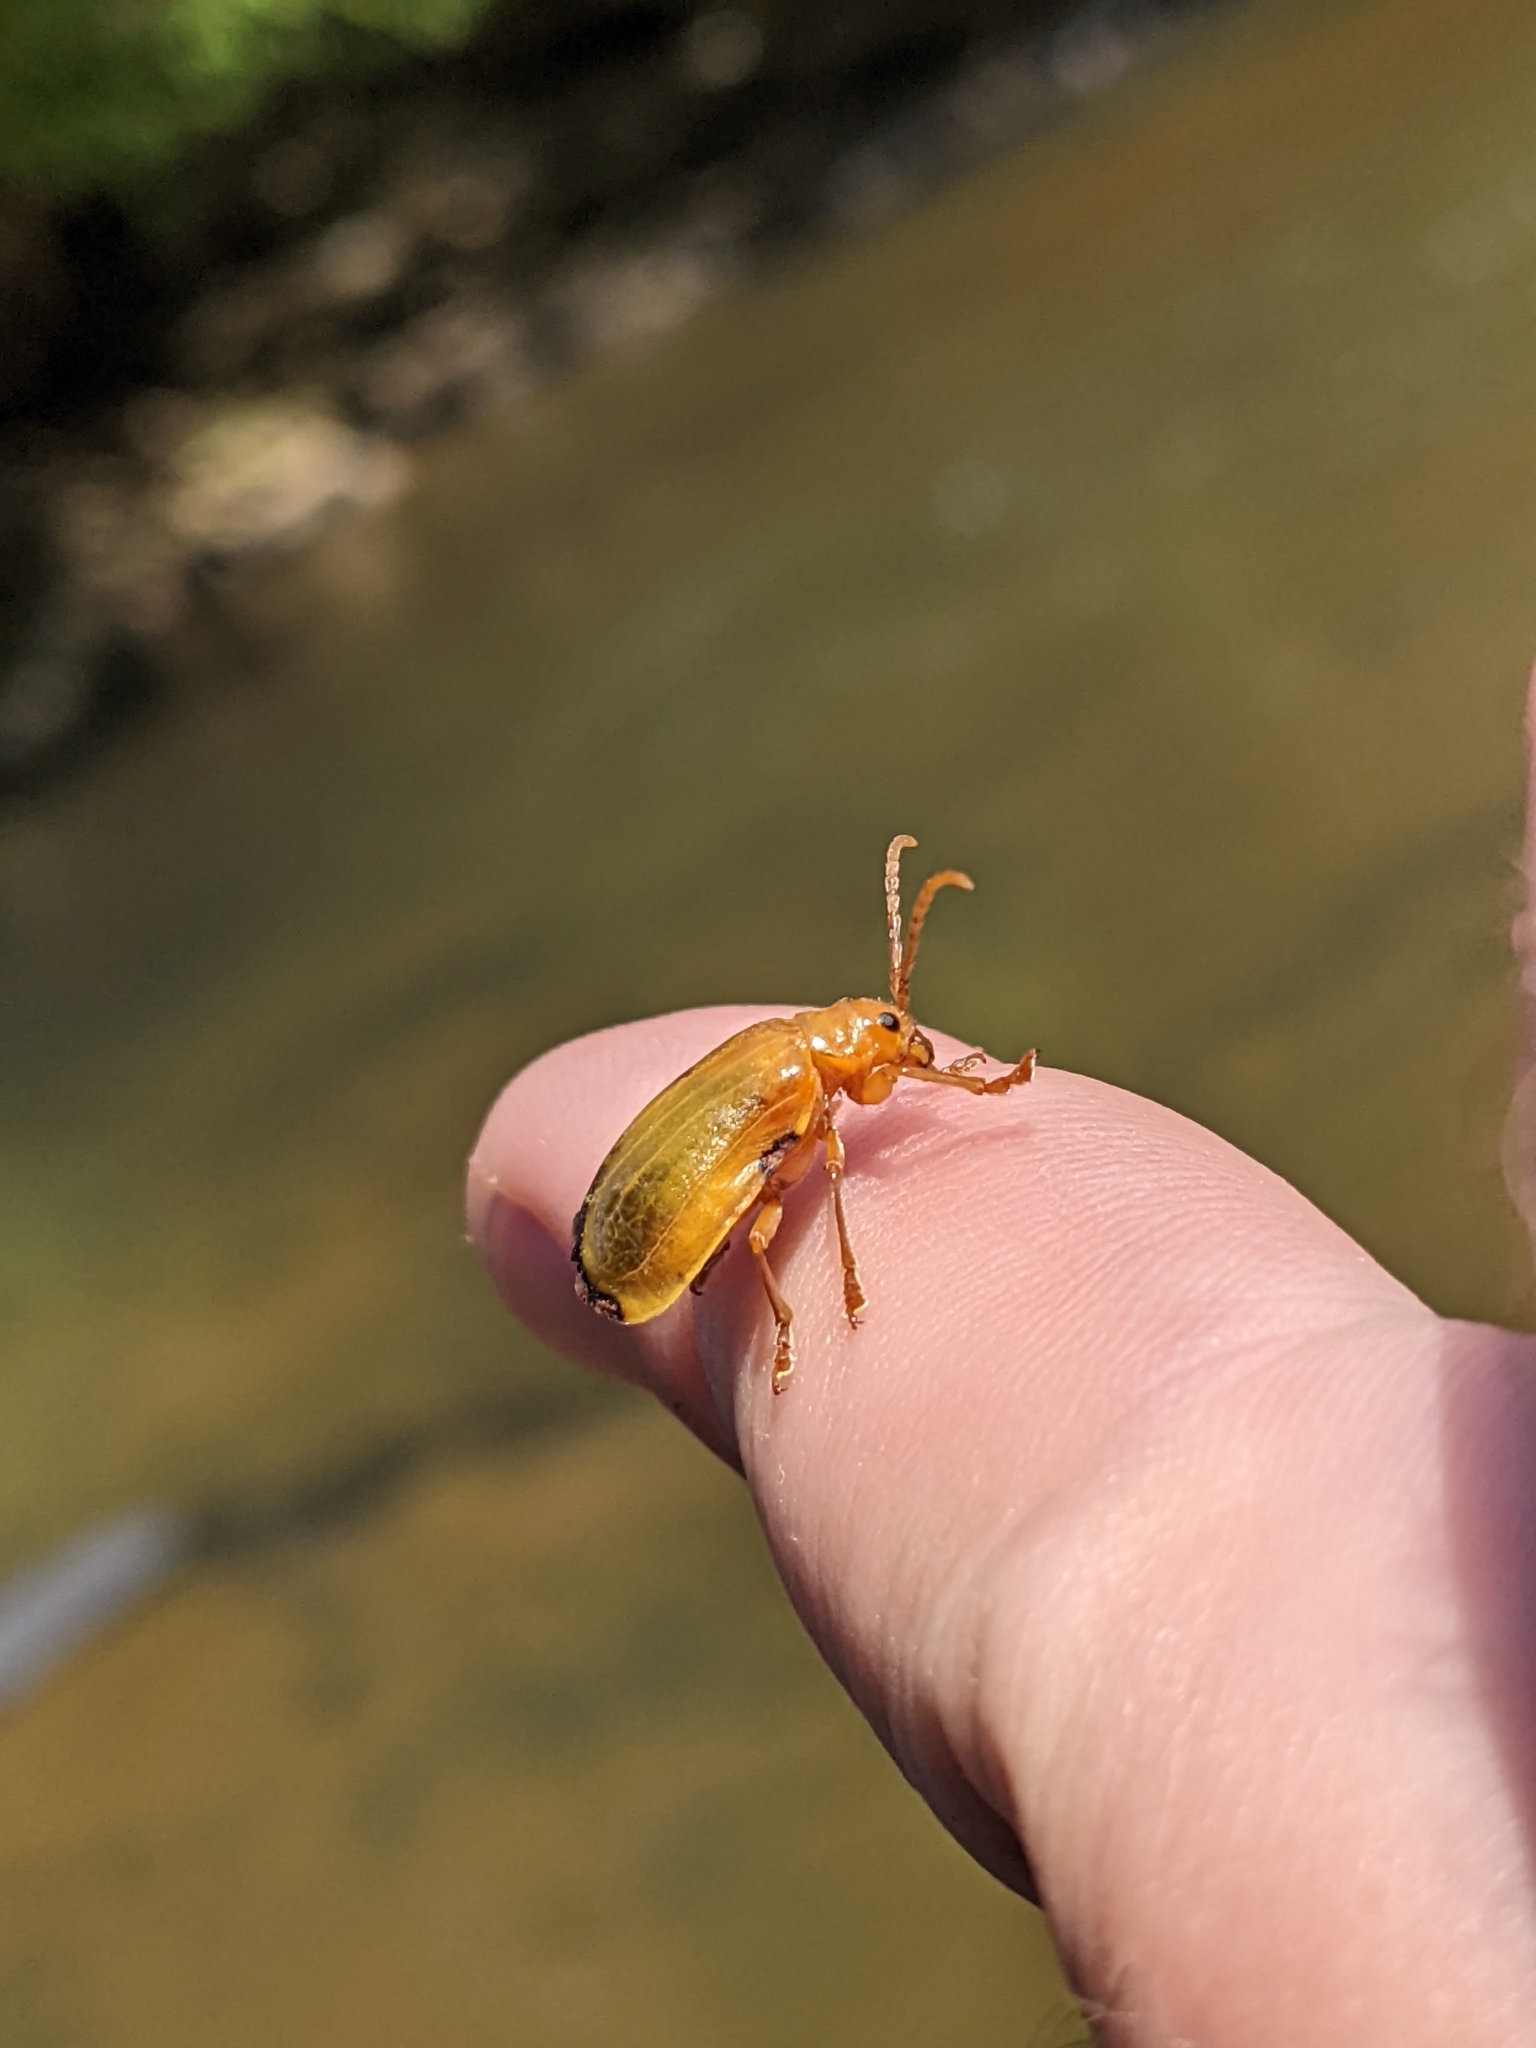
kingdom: Animalia
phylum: Arthropoda
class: Insecta
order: Coleoptera
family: Chrysomelidae
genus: Monocesta
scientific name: Monocesta coryli
